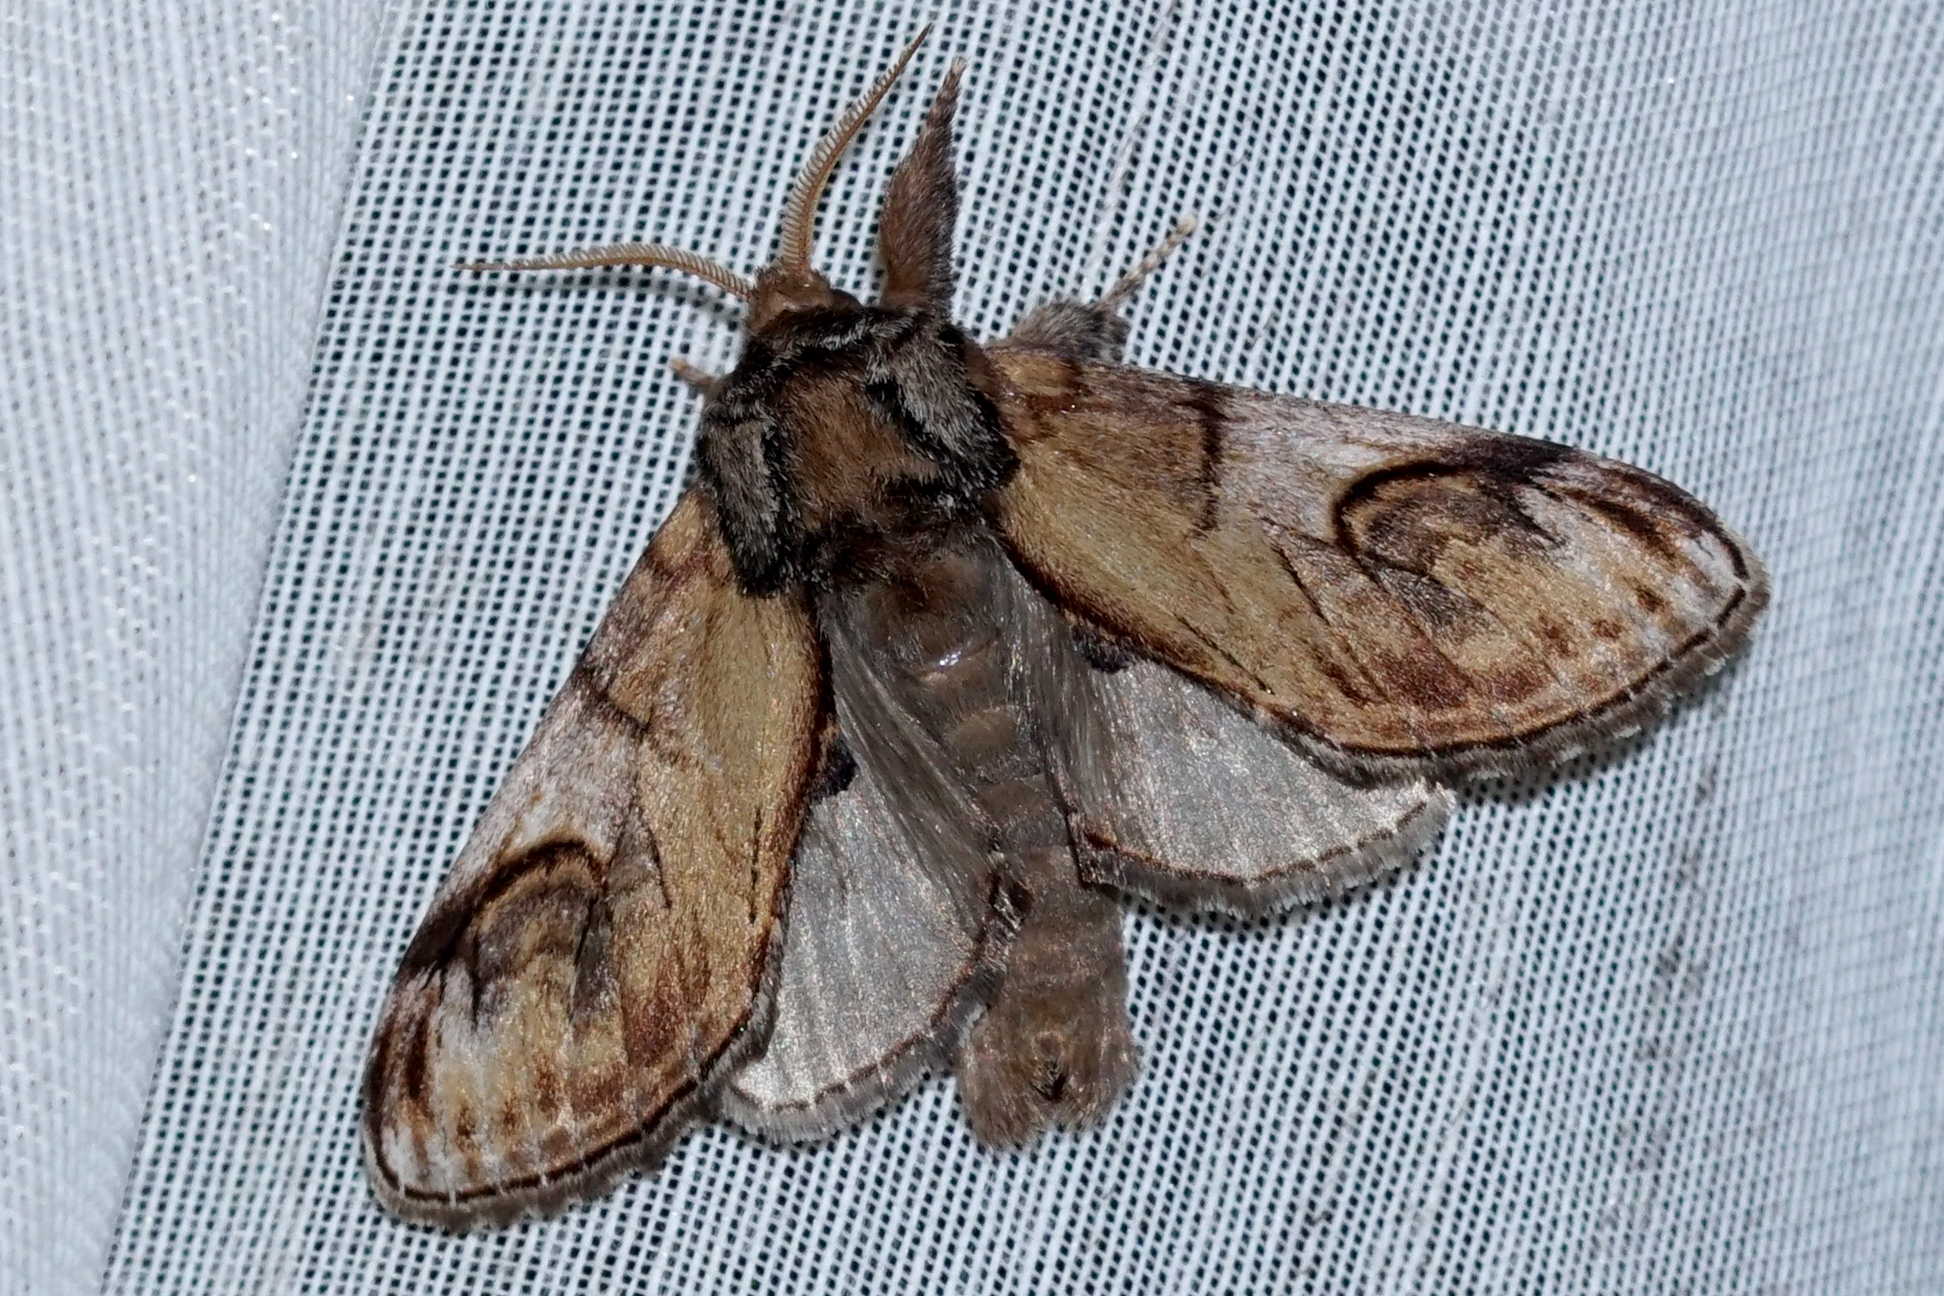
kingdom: Animalia
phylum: Arthropoda
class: Insecta
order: Lepidoptera
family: Notodontidae
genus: Notodonta
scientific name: Notodonta ziczac
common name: Pebble prominent
